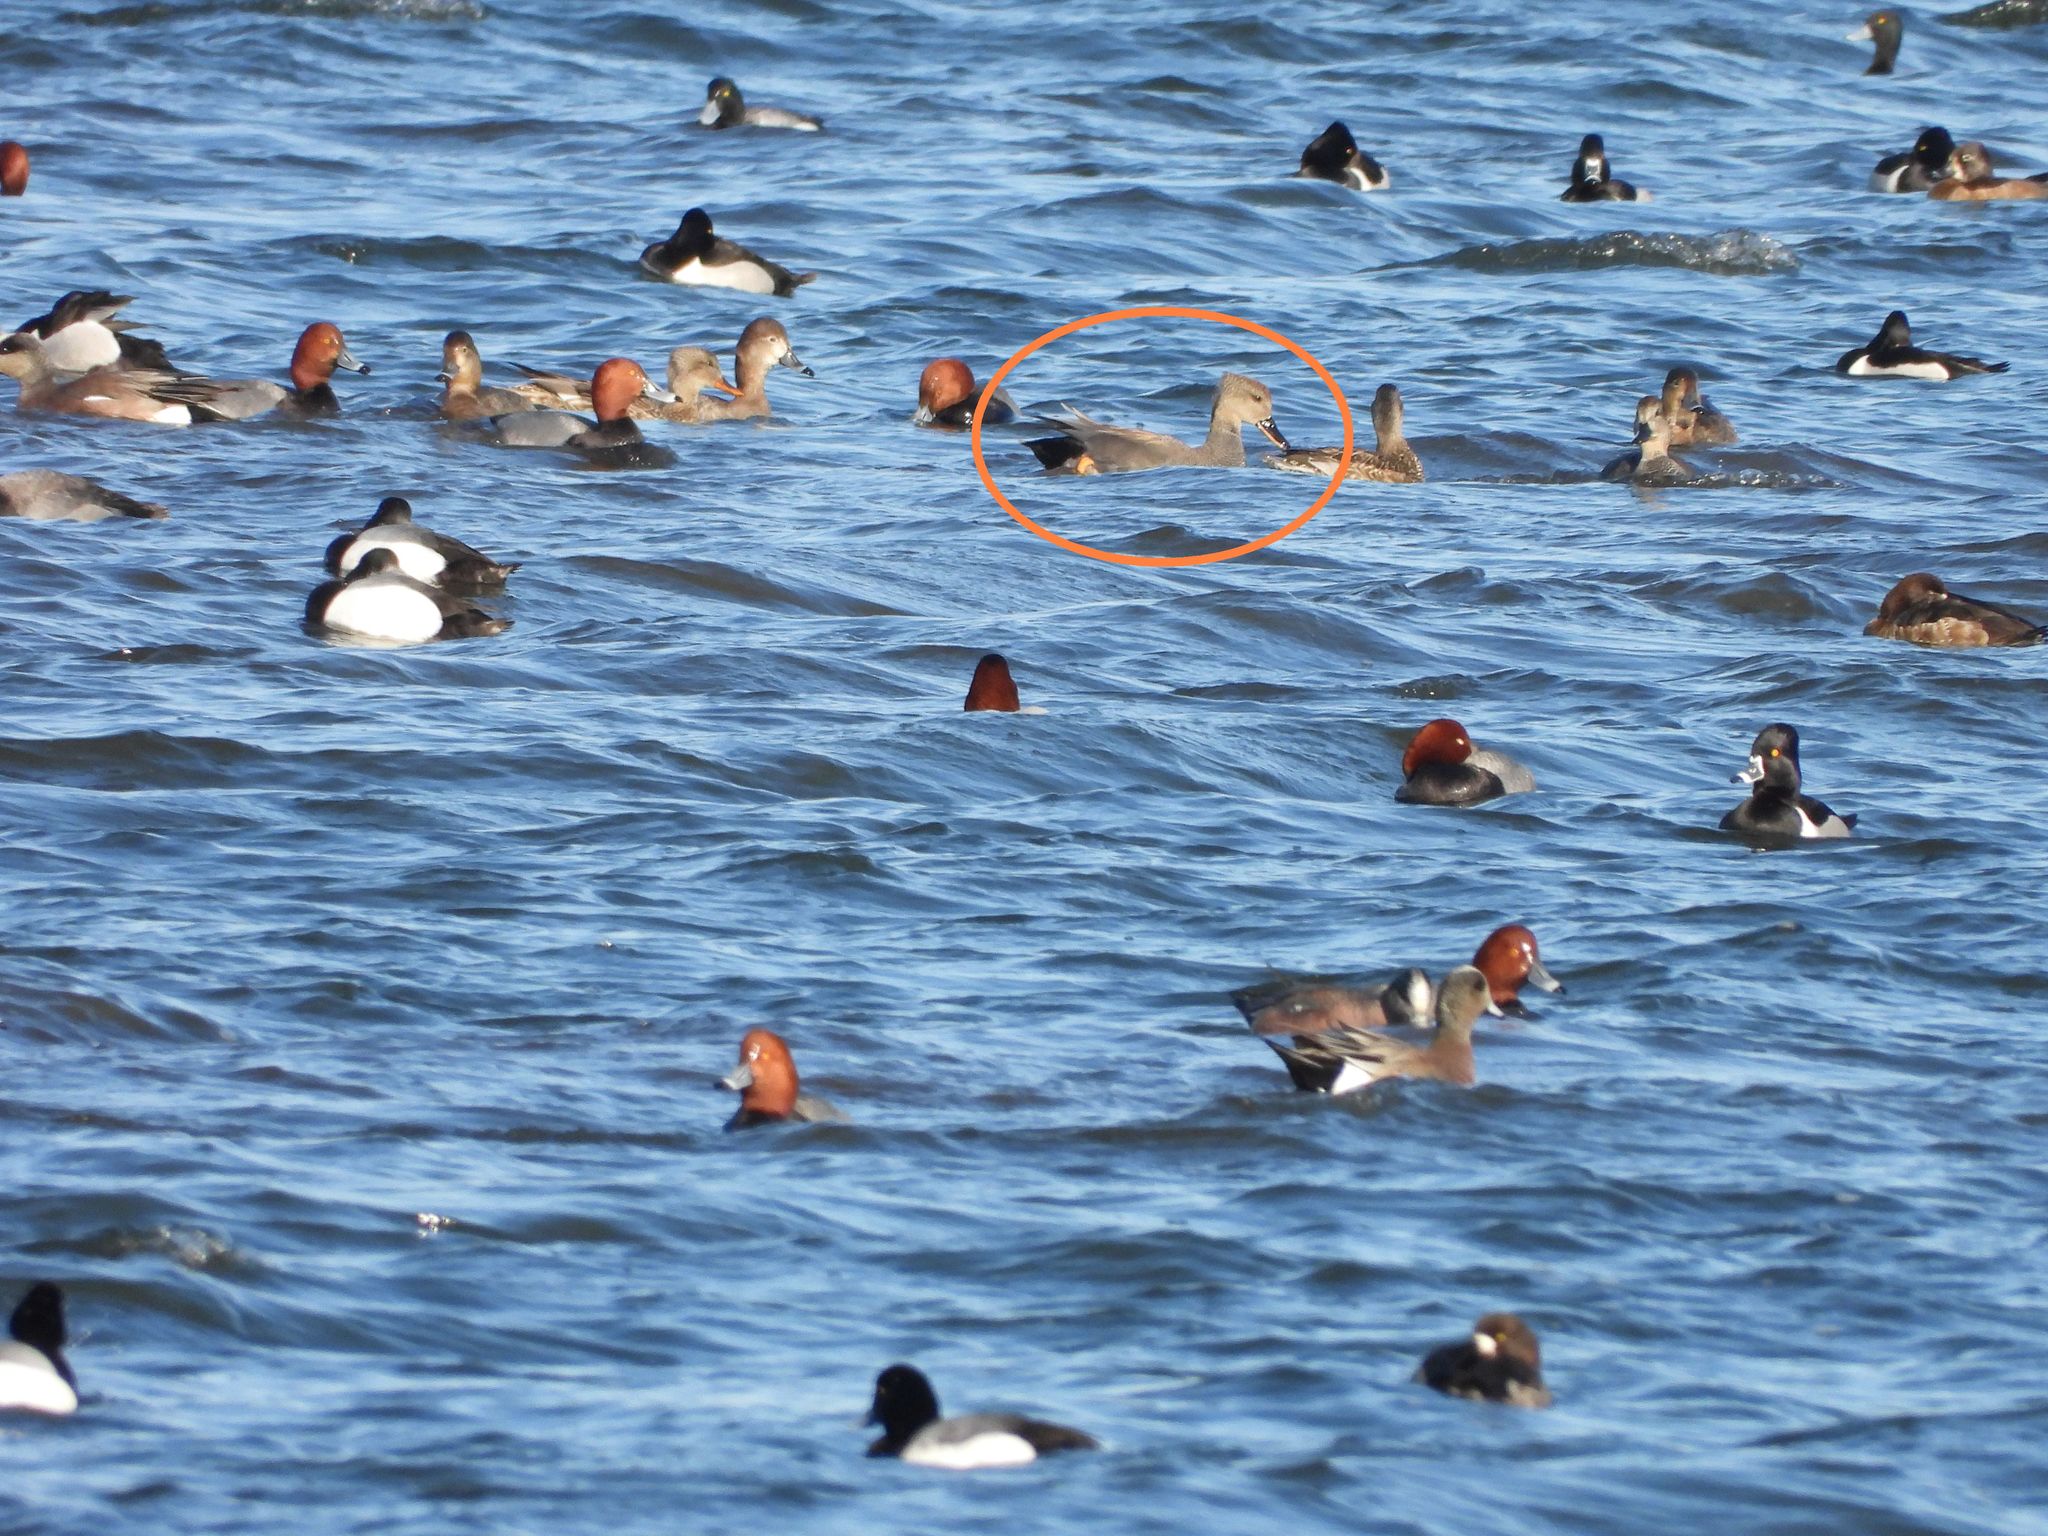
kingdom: Animalia
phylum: Chordata
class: Aves
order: Anseriformes
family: Anatidae
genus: Mareca
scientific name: Mareca strepera
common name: Gadwall
